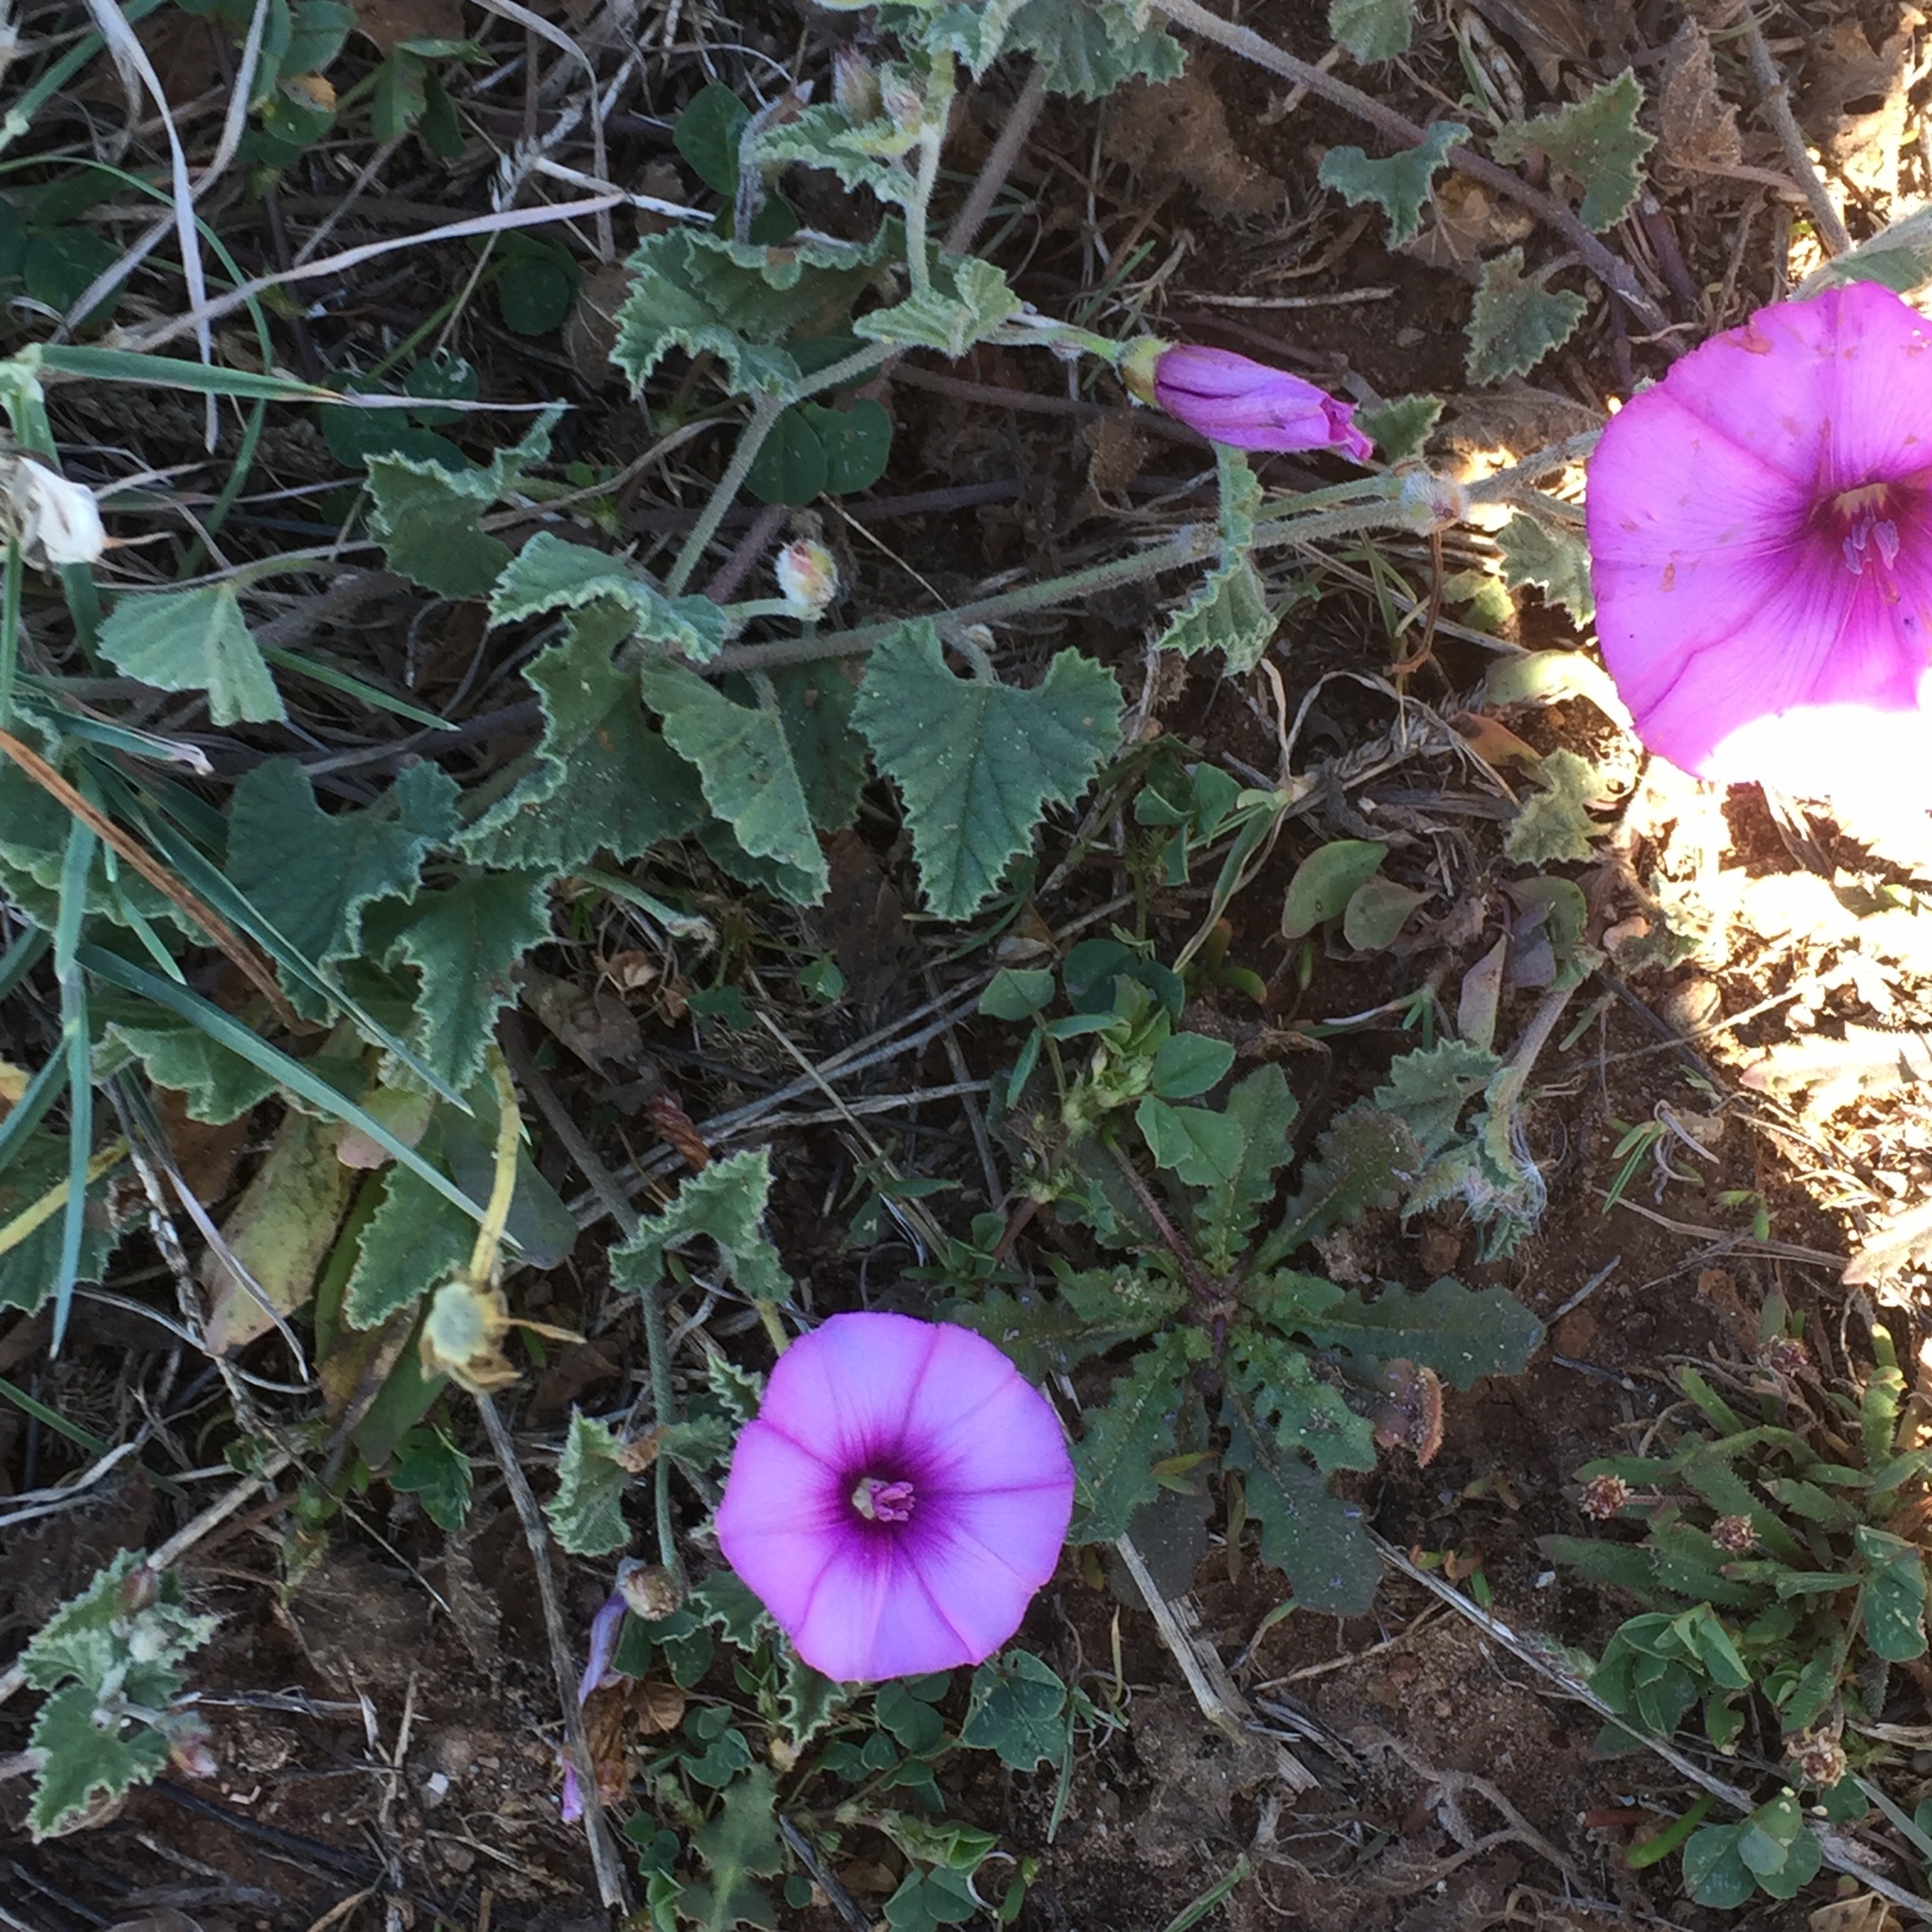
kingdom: Plantae
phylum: Tracheophyta
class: Magnoliopsida
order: Solanales
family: Convolvulaceae
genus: Convolvulus
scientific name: Convolvulus althaeoides
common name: Mallow bindweed
